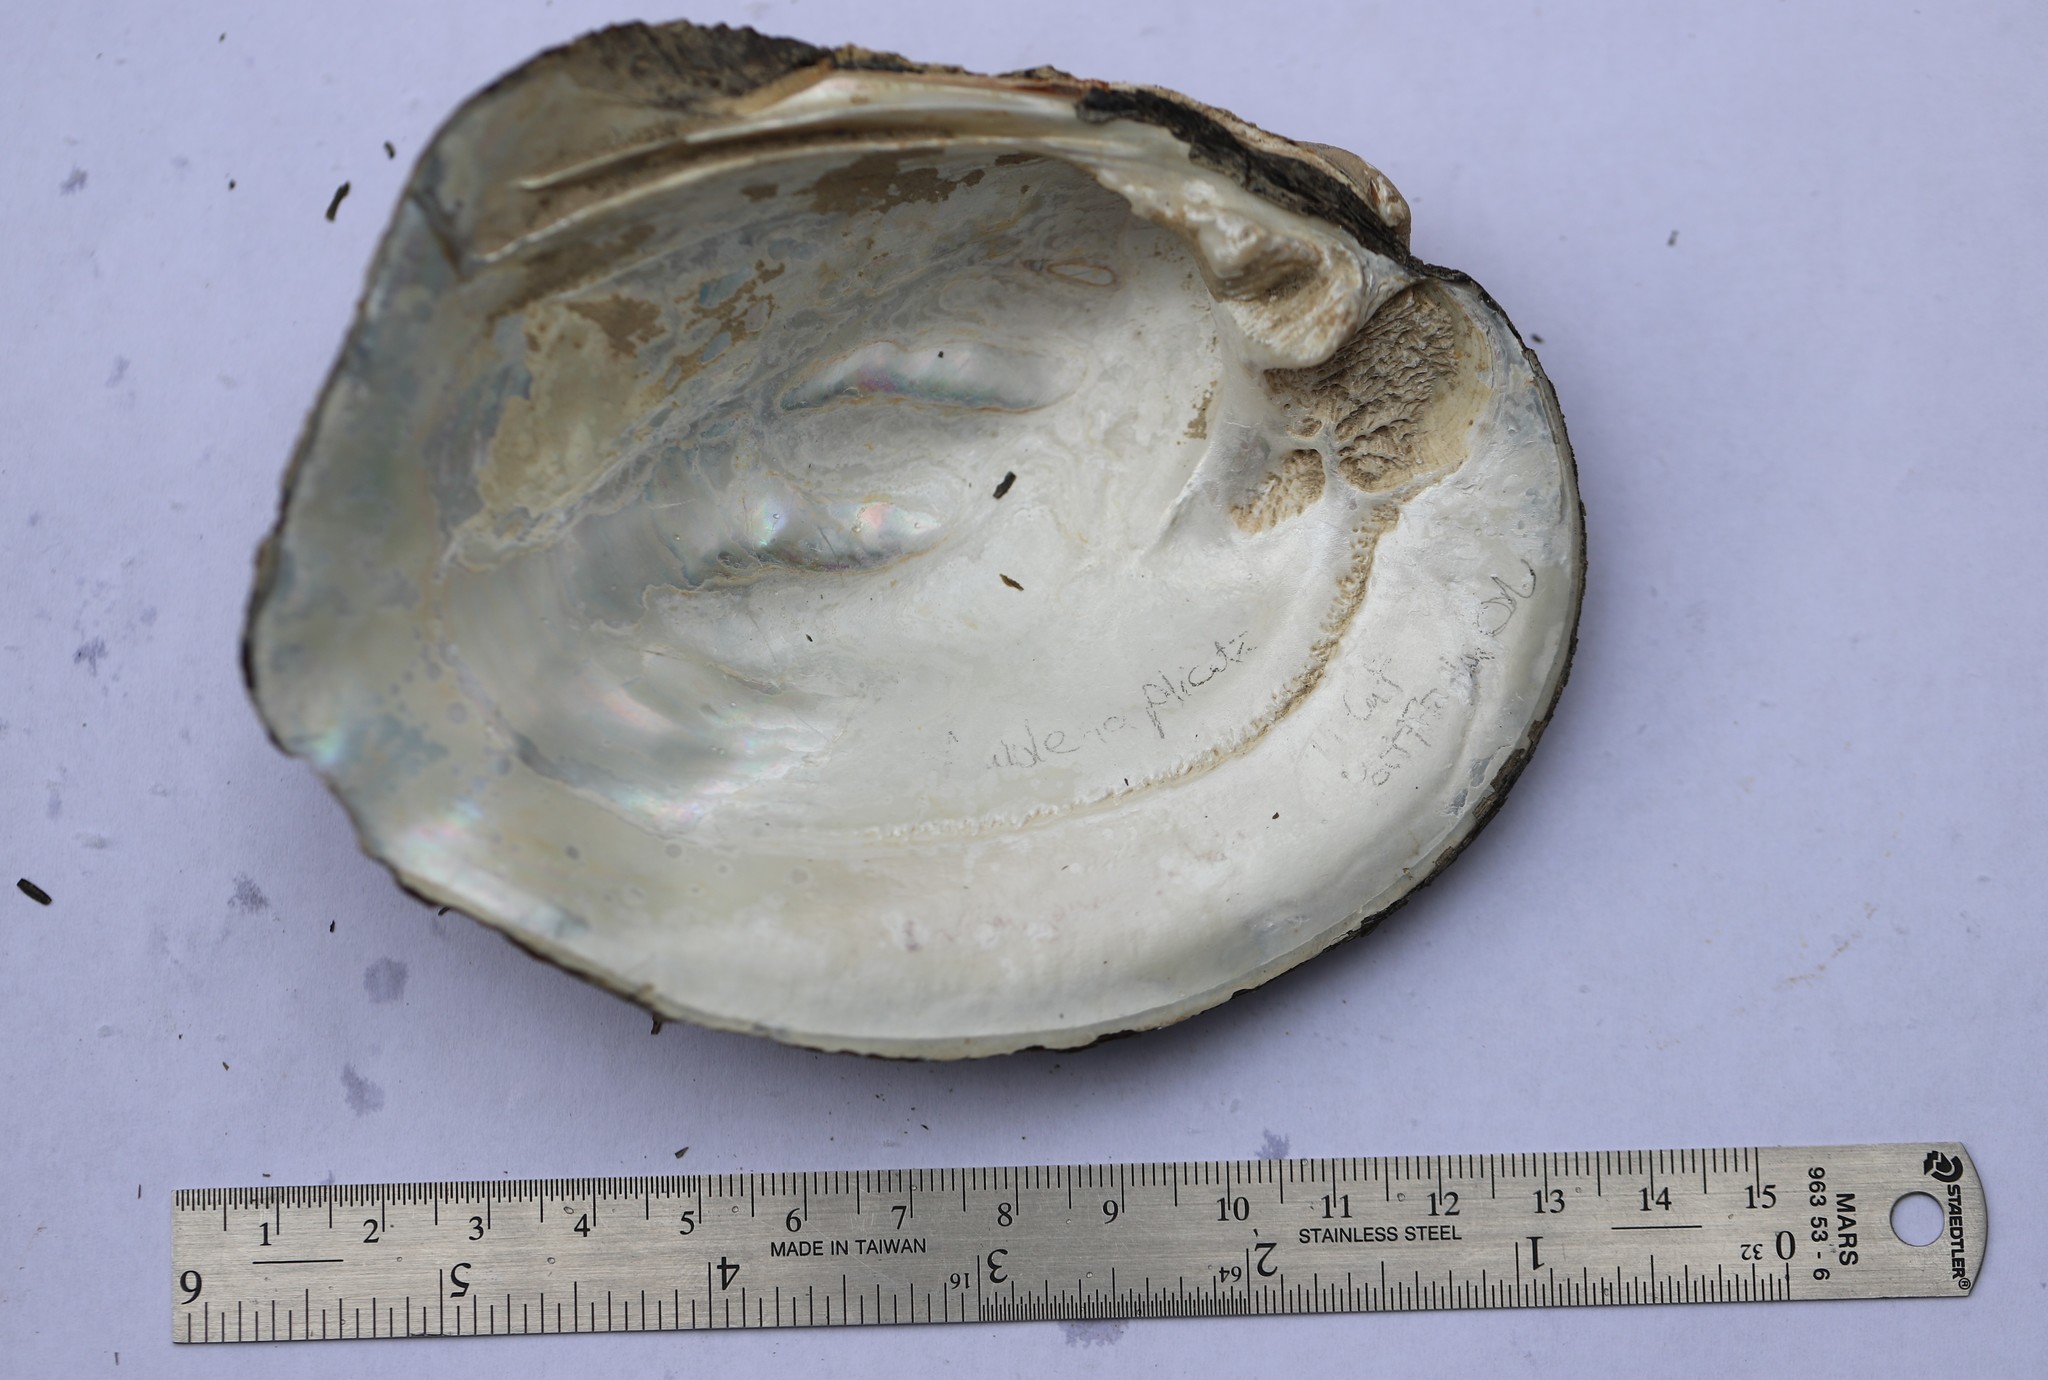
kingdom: Animalia
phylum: Mollusca
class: Bivalvia
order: Unionida
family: Unionidae
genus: Amblema
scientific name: Amblema plicata
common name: Threeridge
